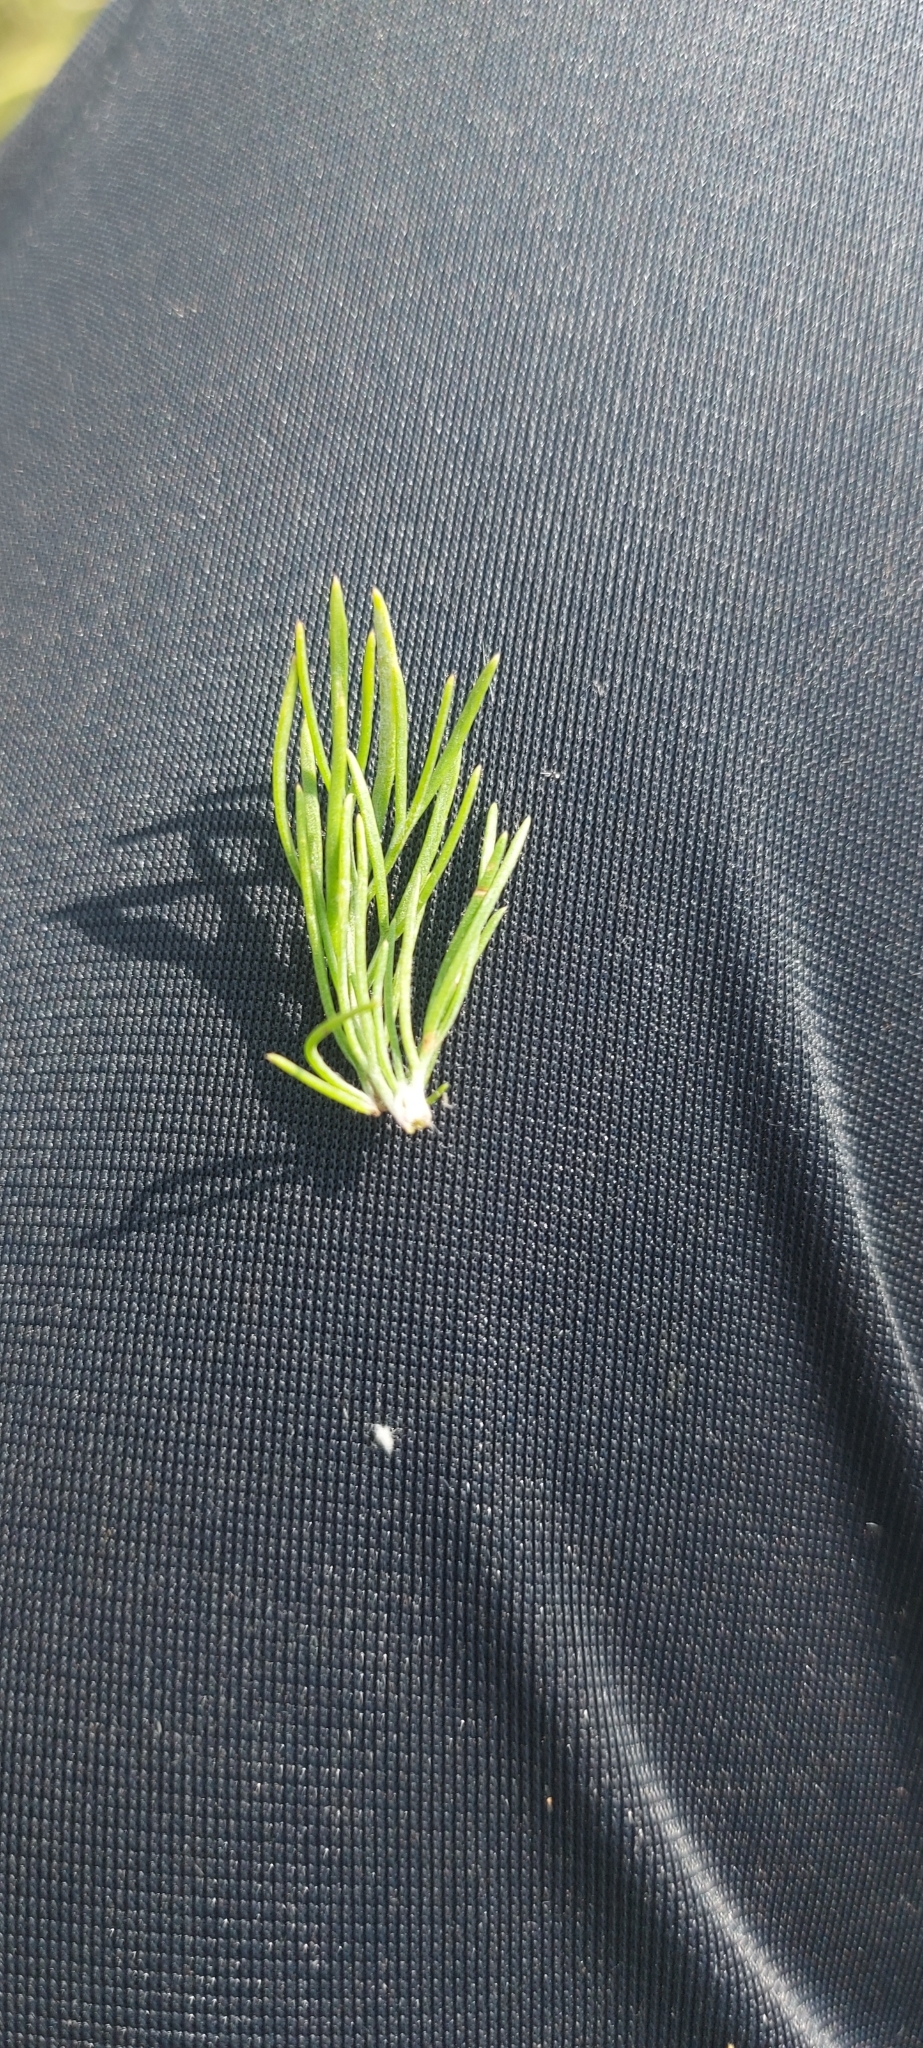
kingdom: Plantae
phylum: Tracheophyta
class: Magnoliopsida
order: Asterales
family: Asteraceae
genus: Artemisia
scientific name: Artemisia campestris
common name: Field wormwood
